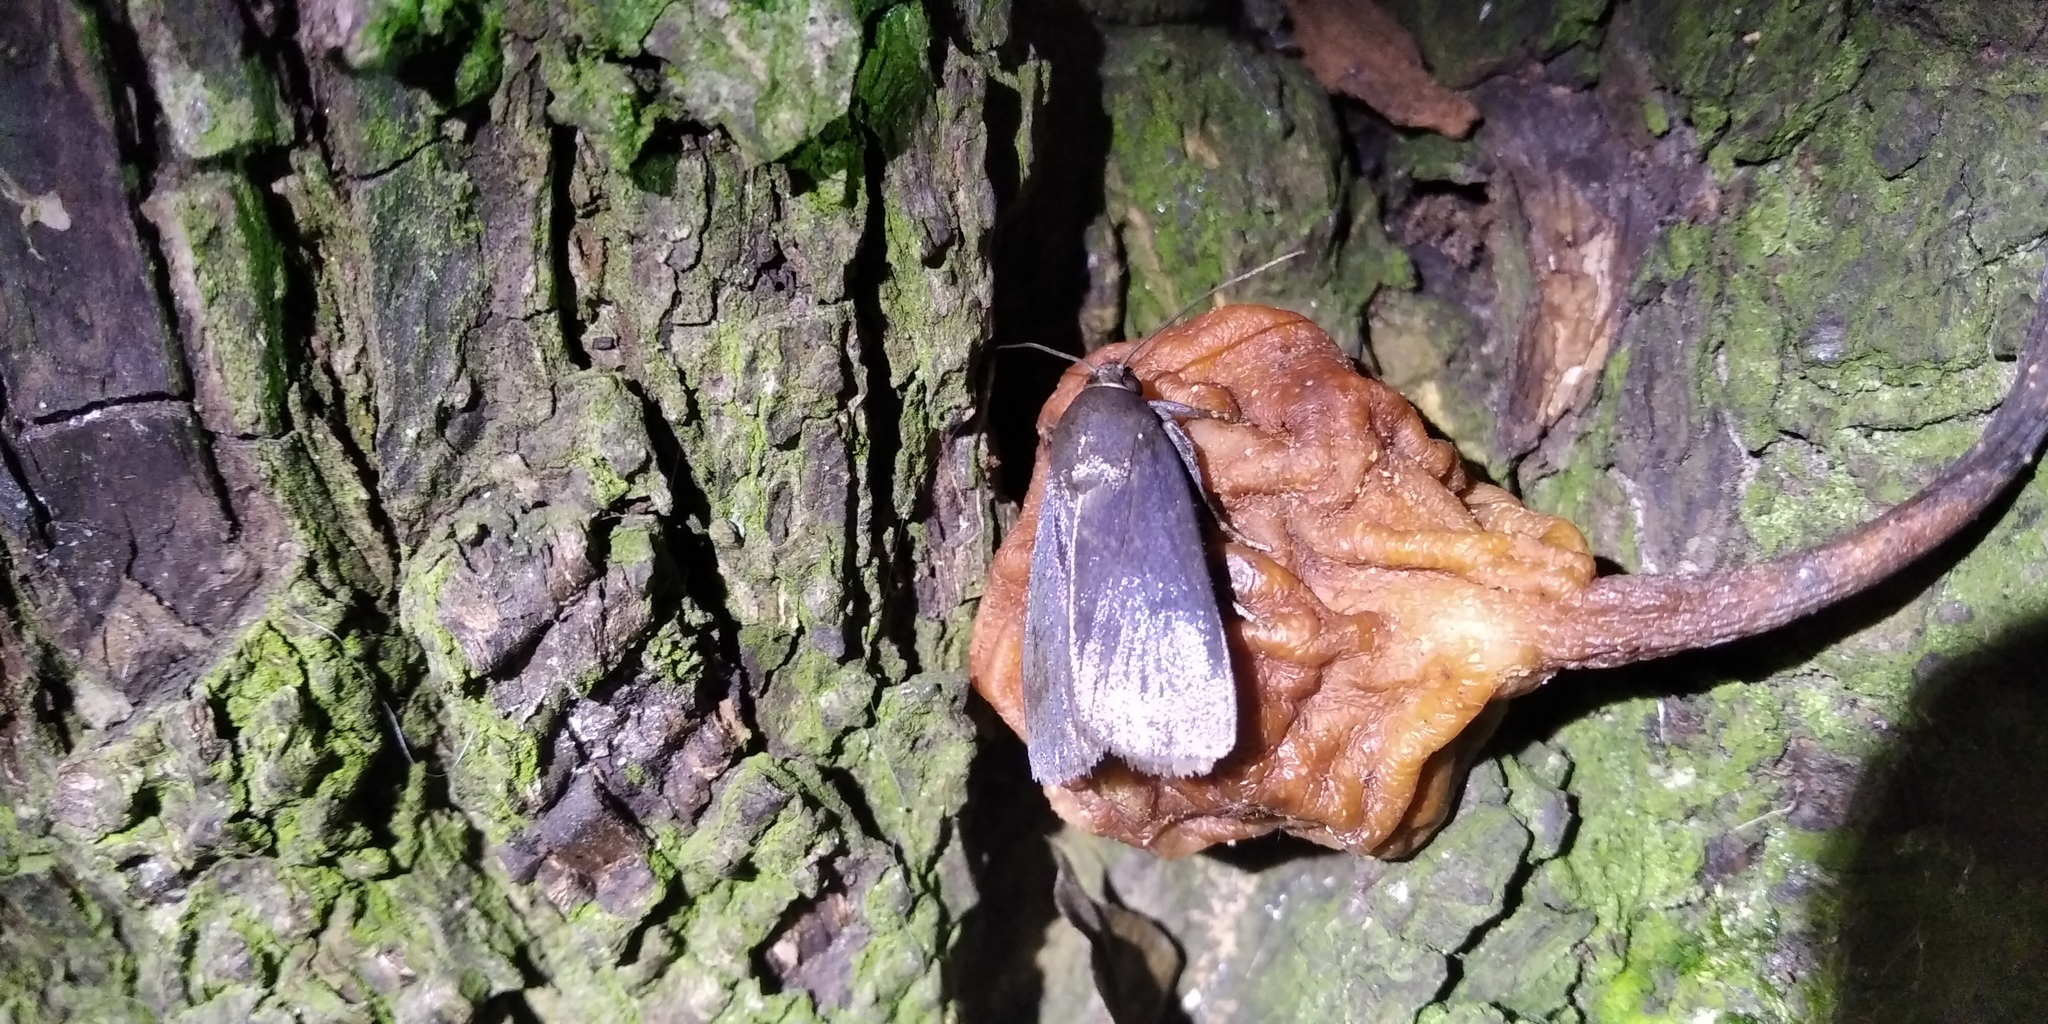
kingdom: Animalia
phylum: Arthropoda
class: Insecta
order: Lepidoptera
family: Noctuidae
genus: Amphipyra
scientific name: Amphipyra livida
